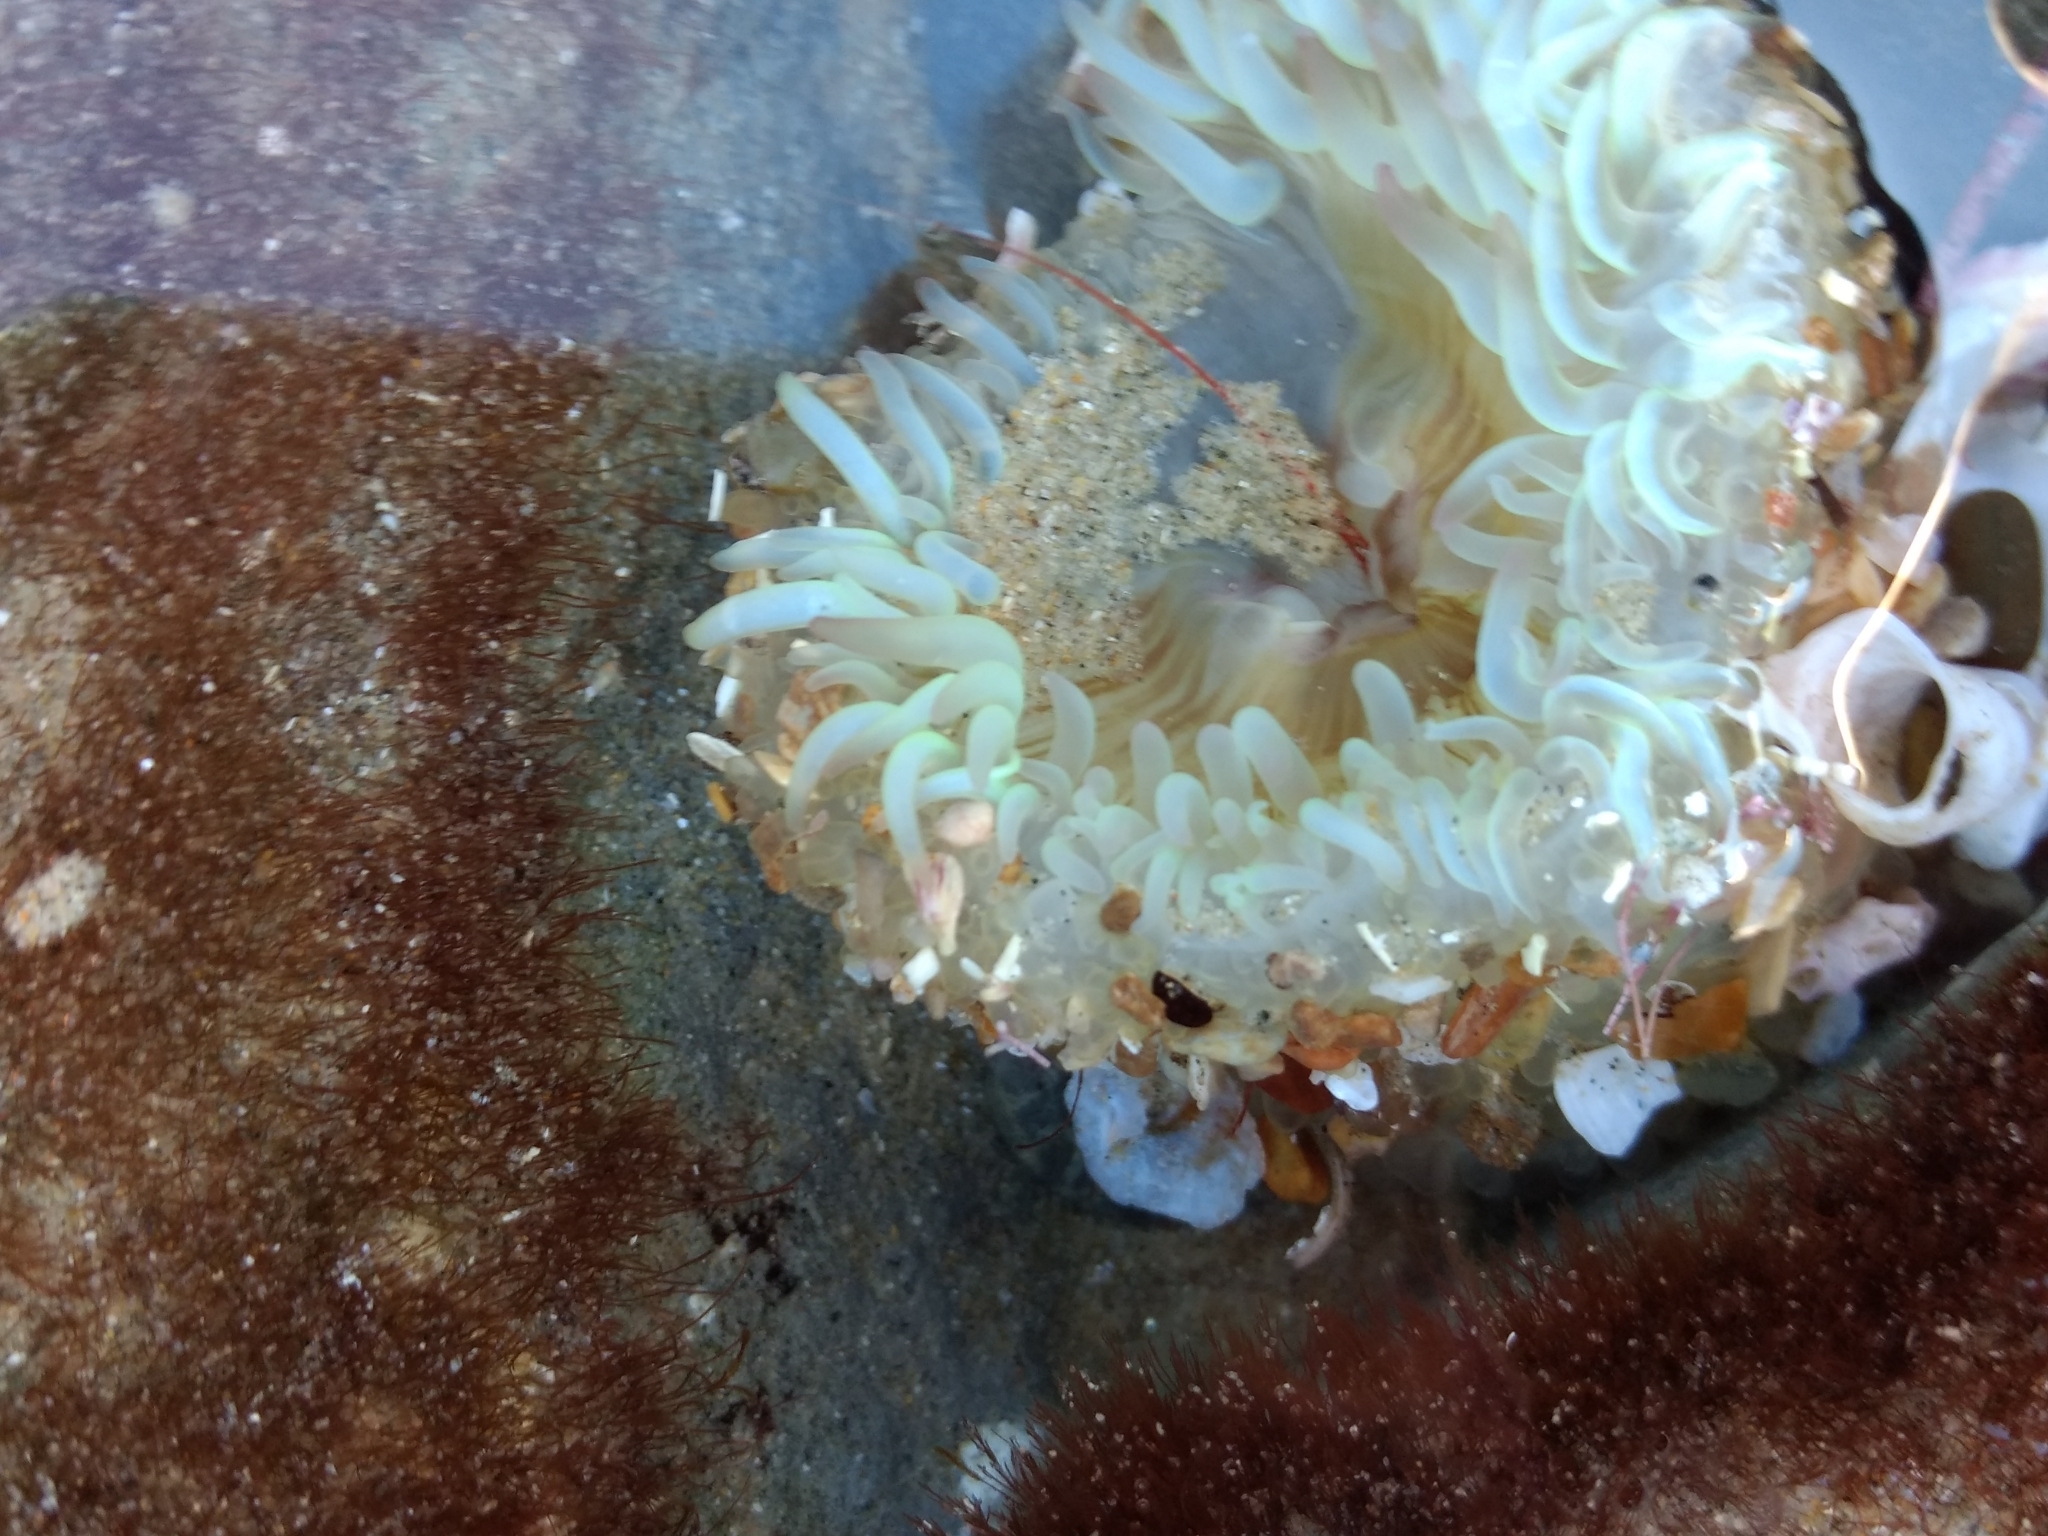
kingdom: Animalia
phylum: Cnidaria
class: Anthozoa
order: Actiniaria
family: Actiniidae
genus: Anthopleura
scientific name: Anthopleura sola
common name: Sun anemone
